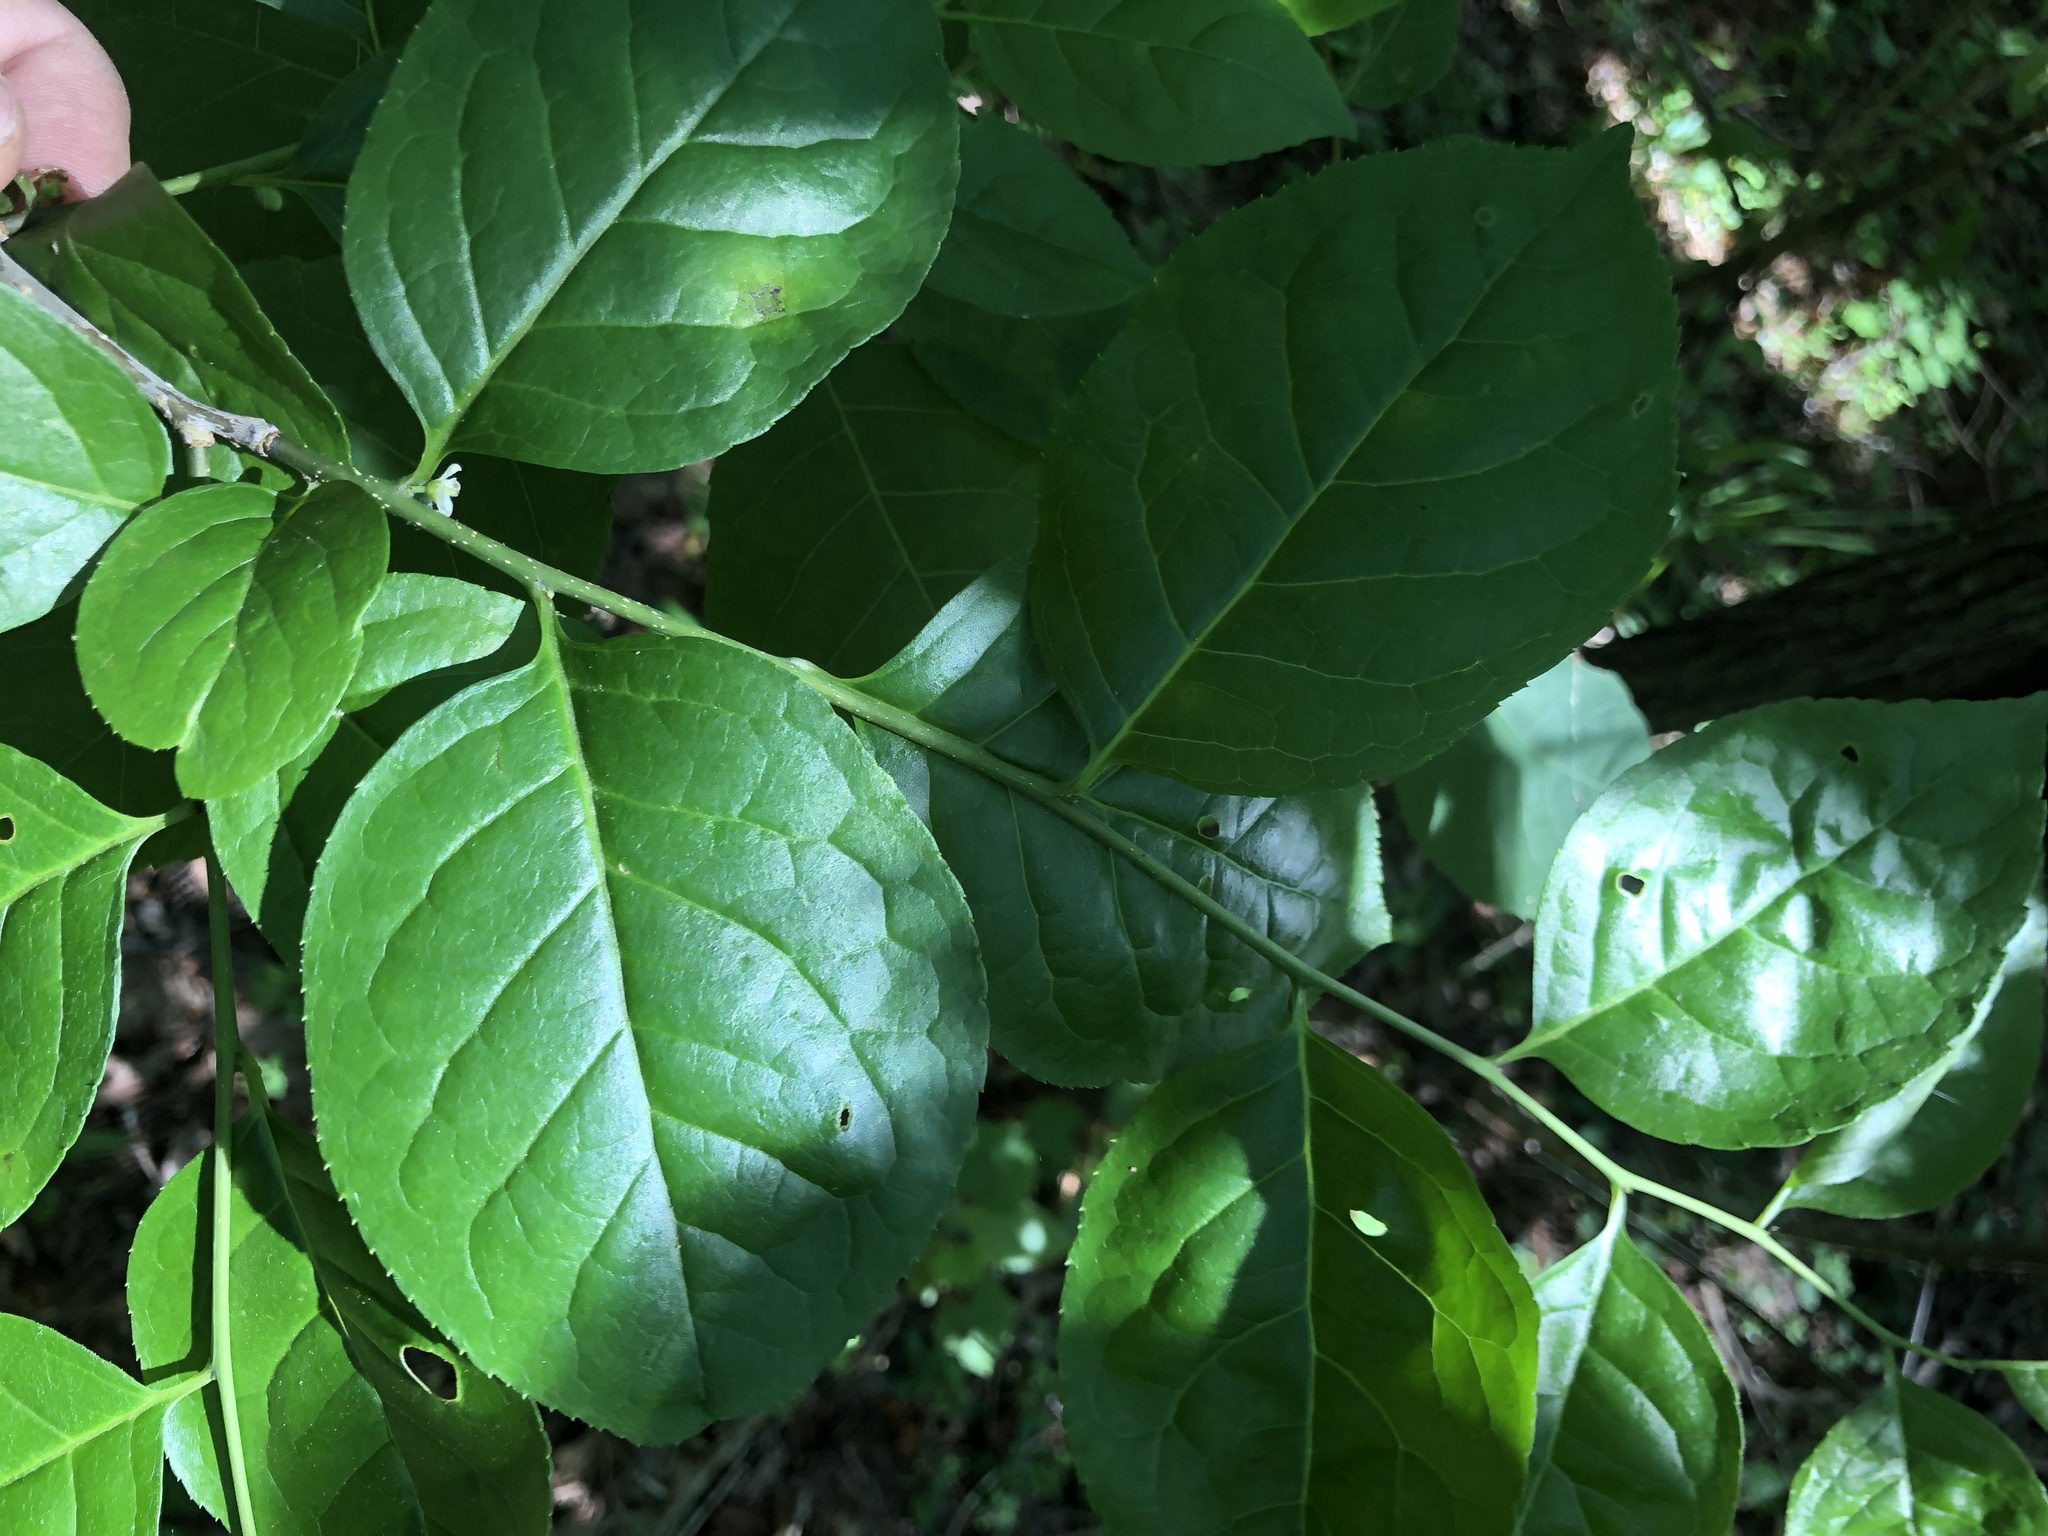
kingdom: Plantae
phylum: Tracheophyta
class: Magnoliopsida
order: Aquifoliales
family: Aquifoliaceae
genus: Ilex
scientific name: Ilex ambigua
